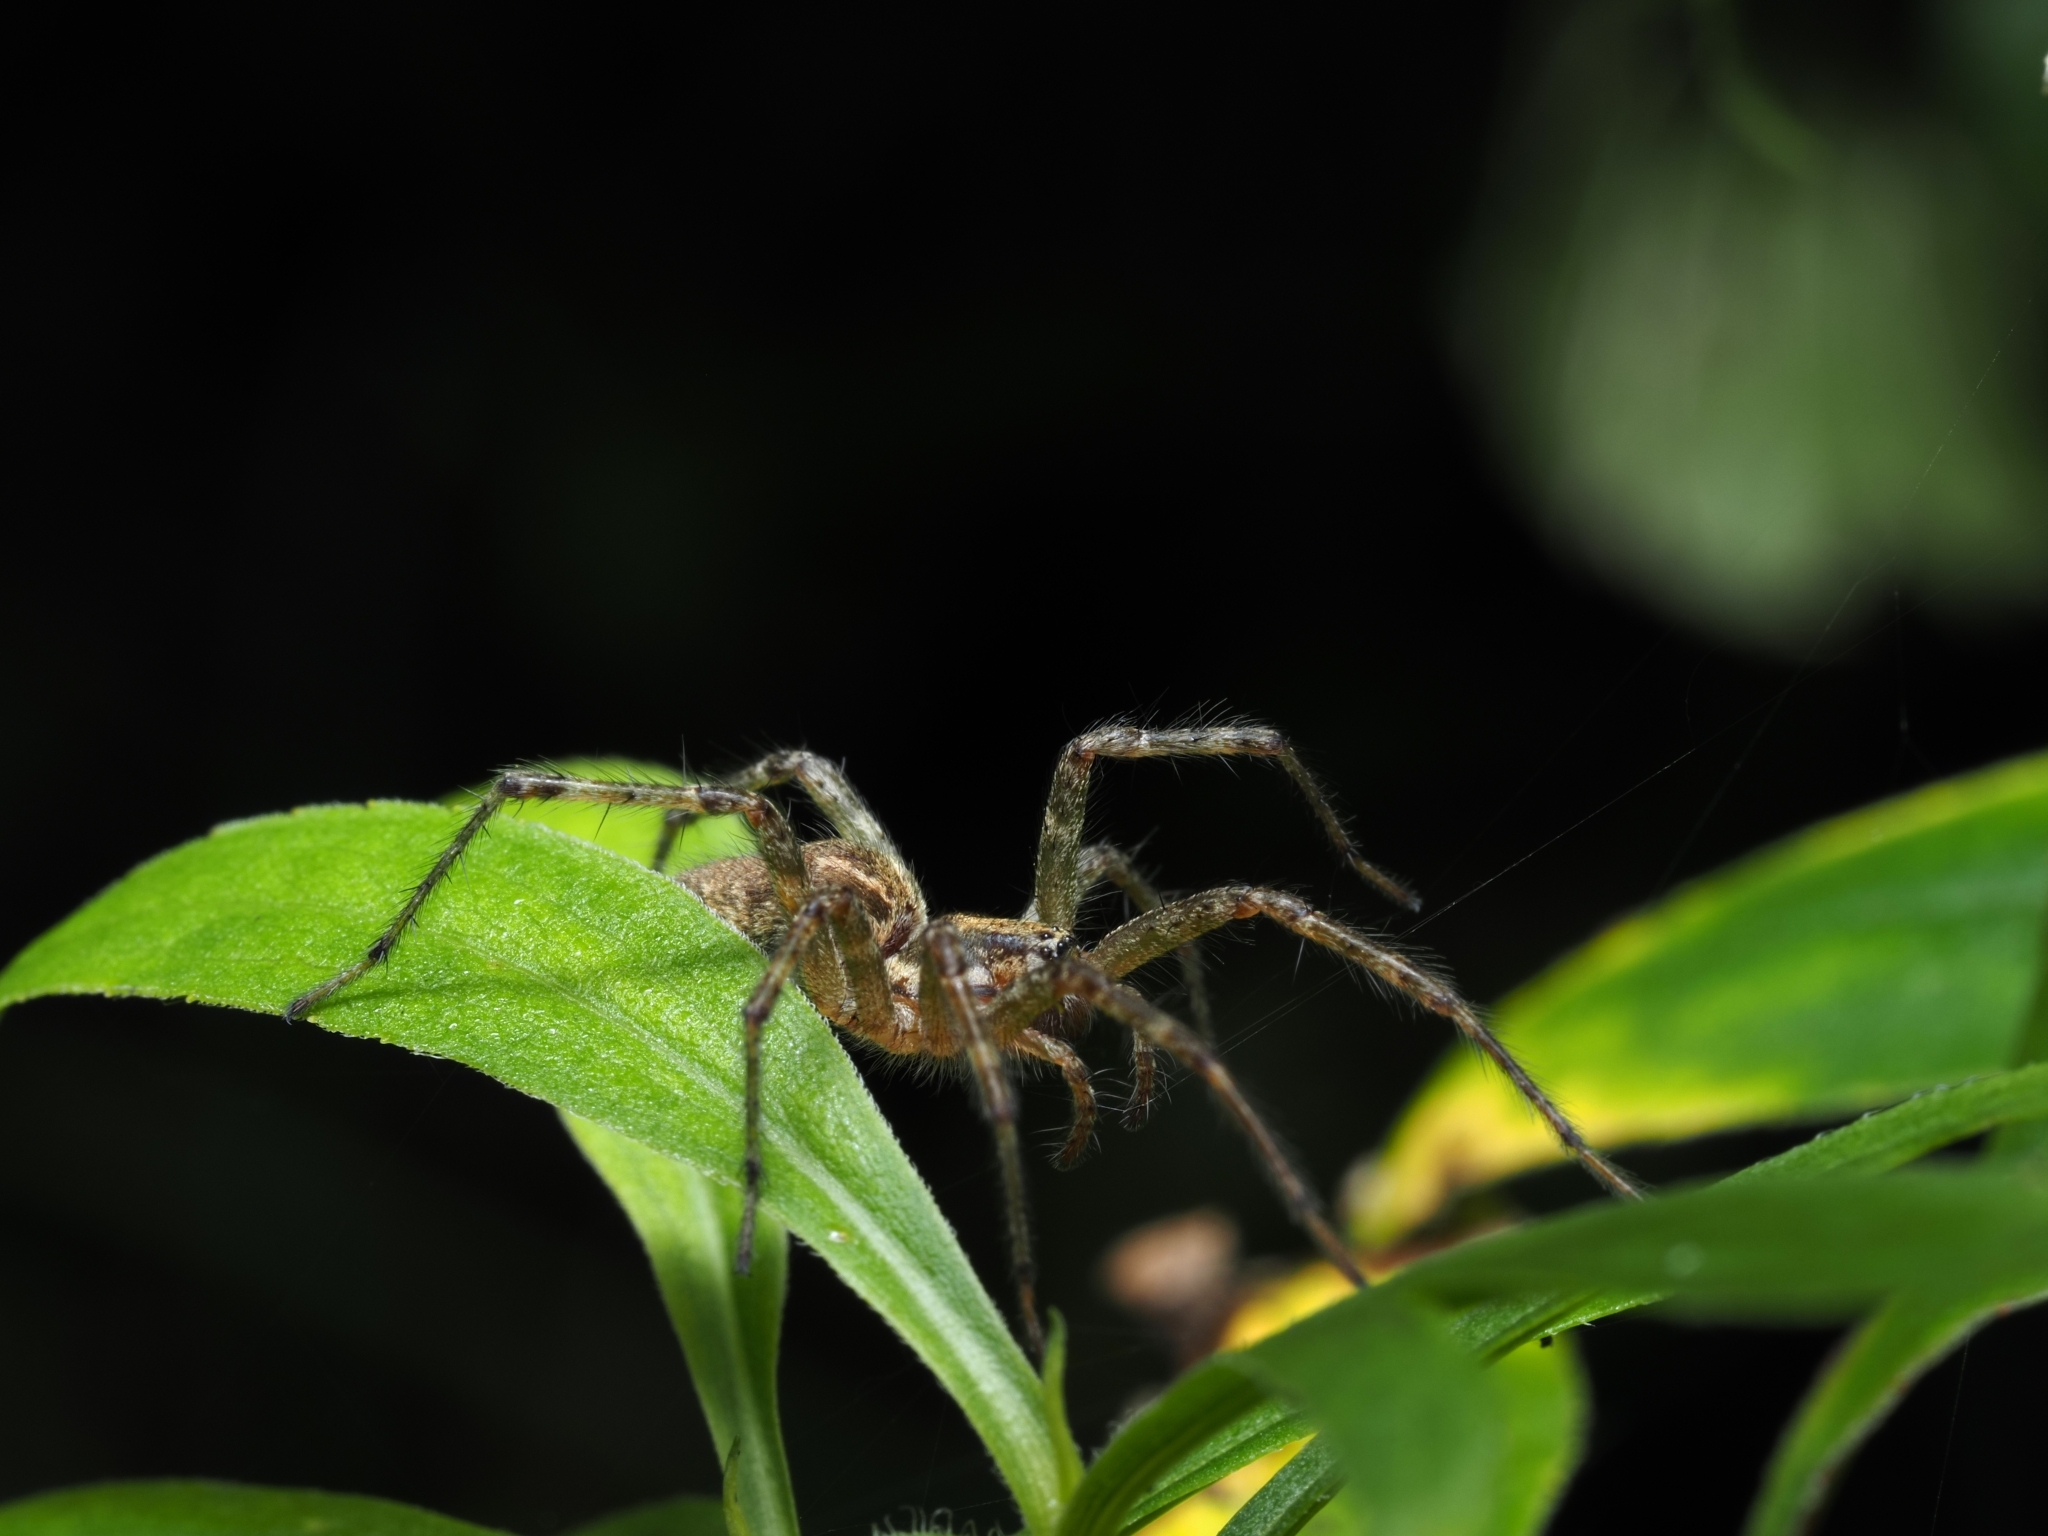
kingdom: Animalia
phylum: Arthropoda
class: Arachnida
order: Araneae
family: Agelenidae
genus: Allagelena
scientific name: Allagelena gracilens
